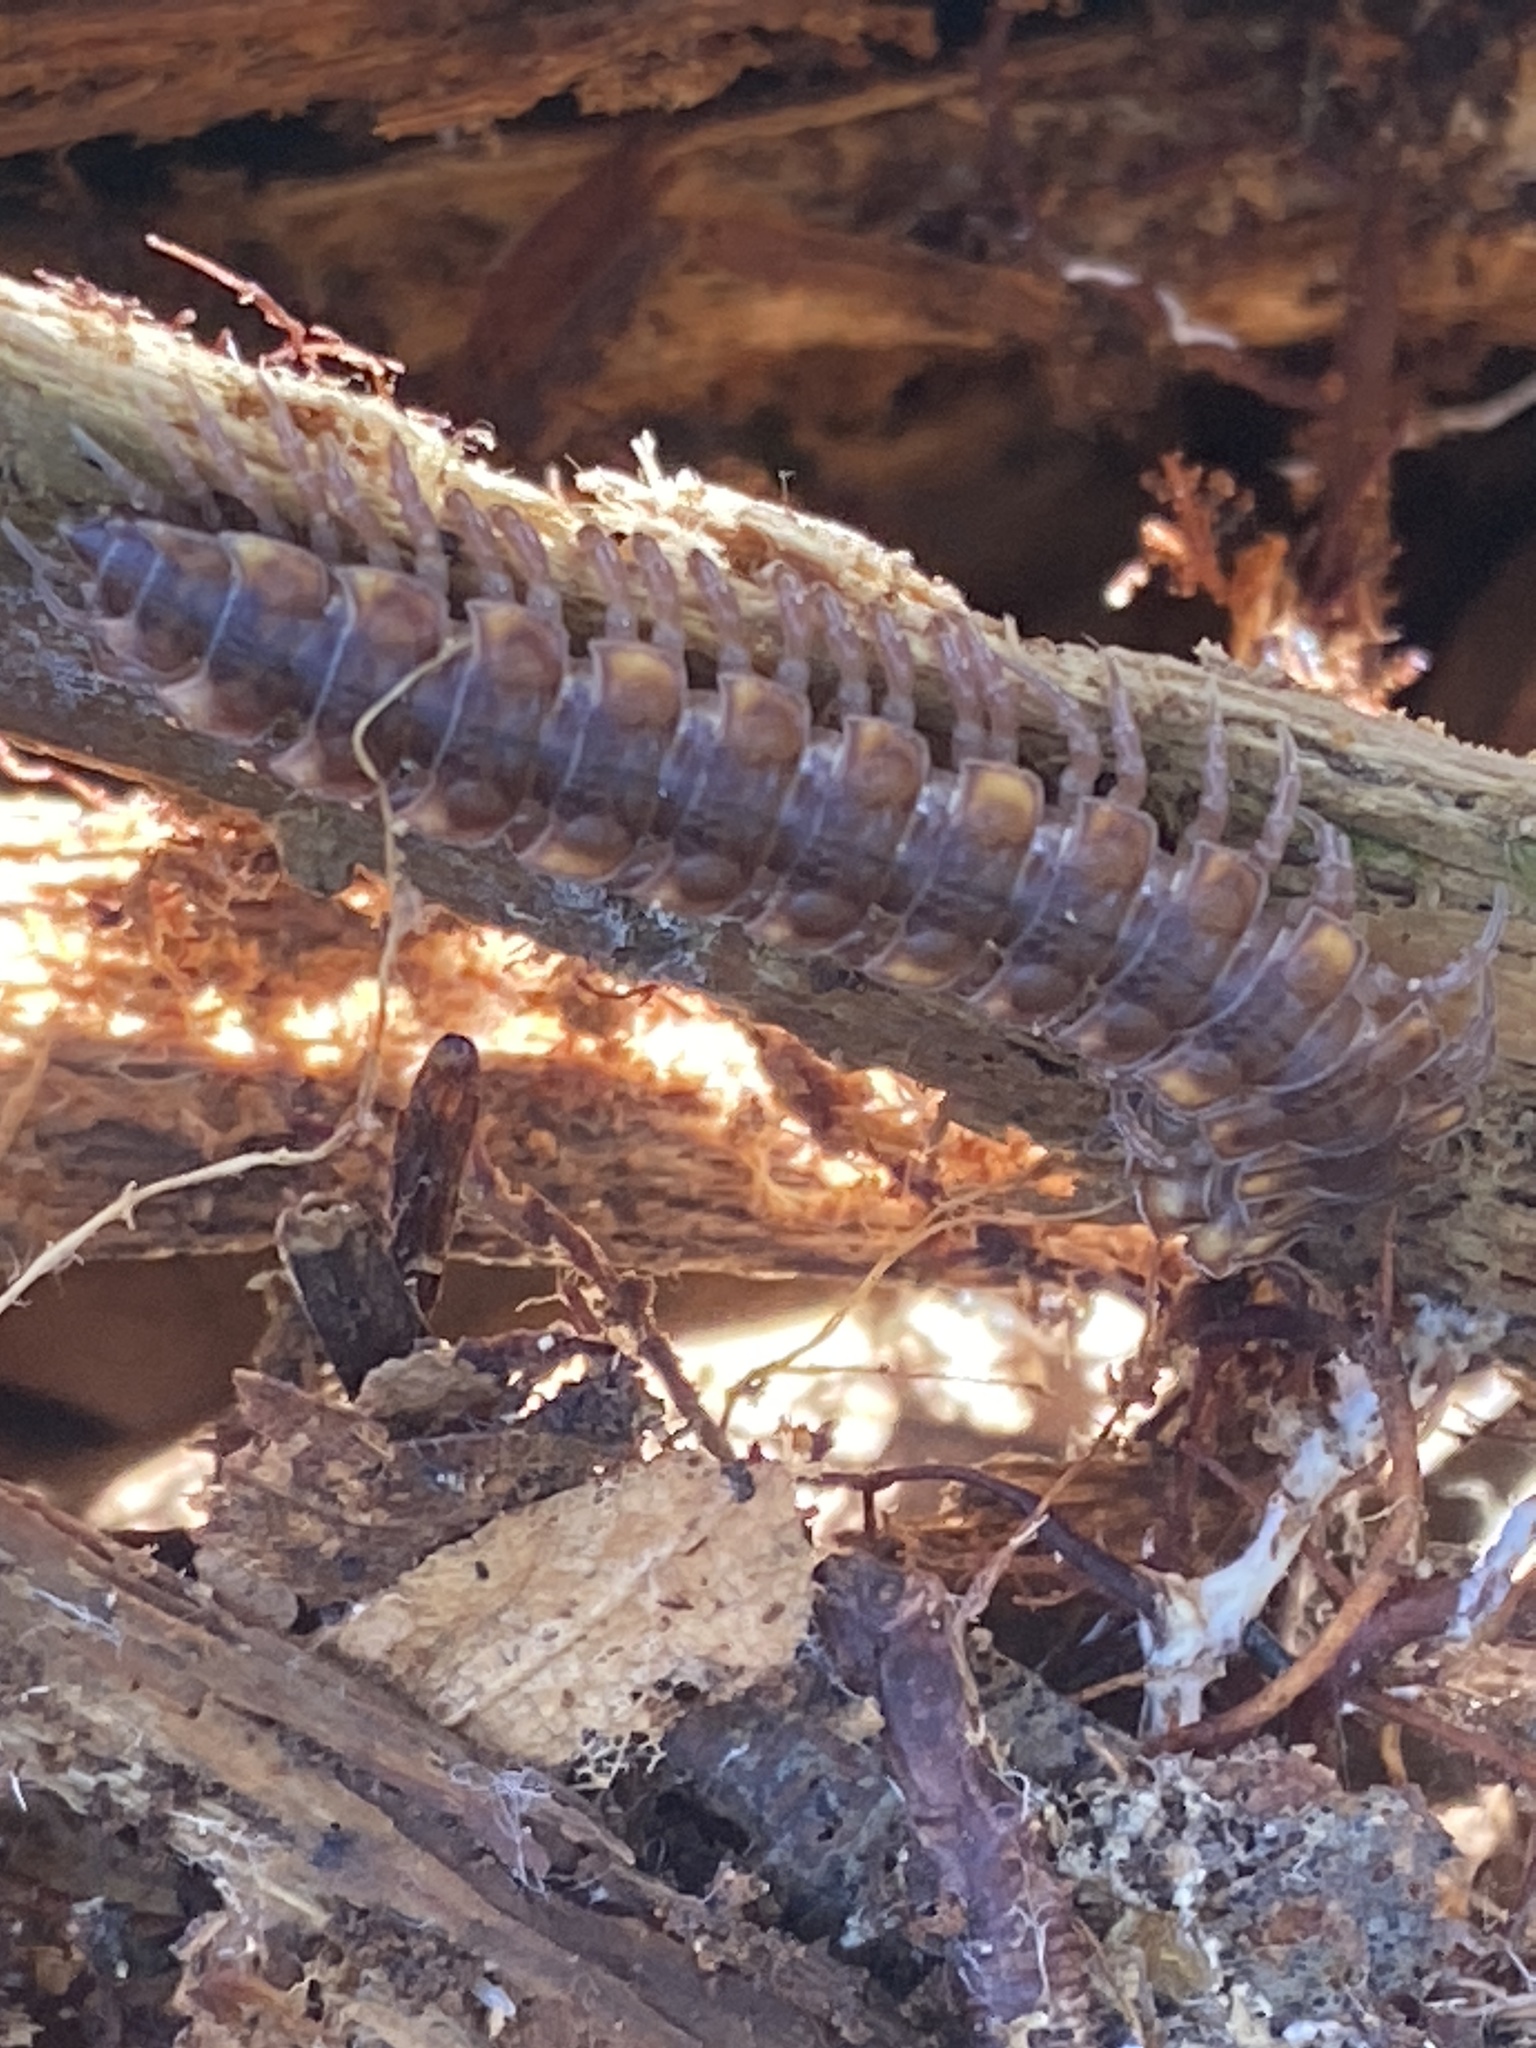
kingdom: Animalia
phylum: Arthropoda
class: Diplopoda
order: Polydesmida
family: Polydesmidae
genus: Polydesmus
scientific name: Polydesmus complanatus
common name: Flat-backed millipede
